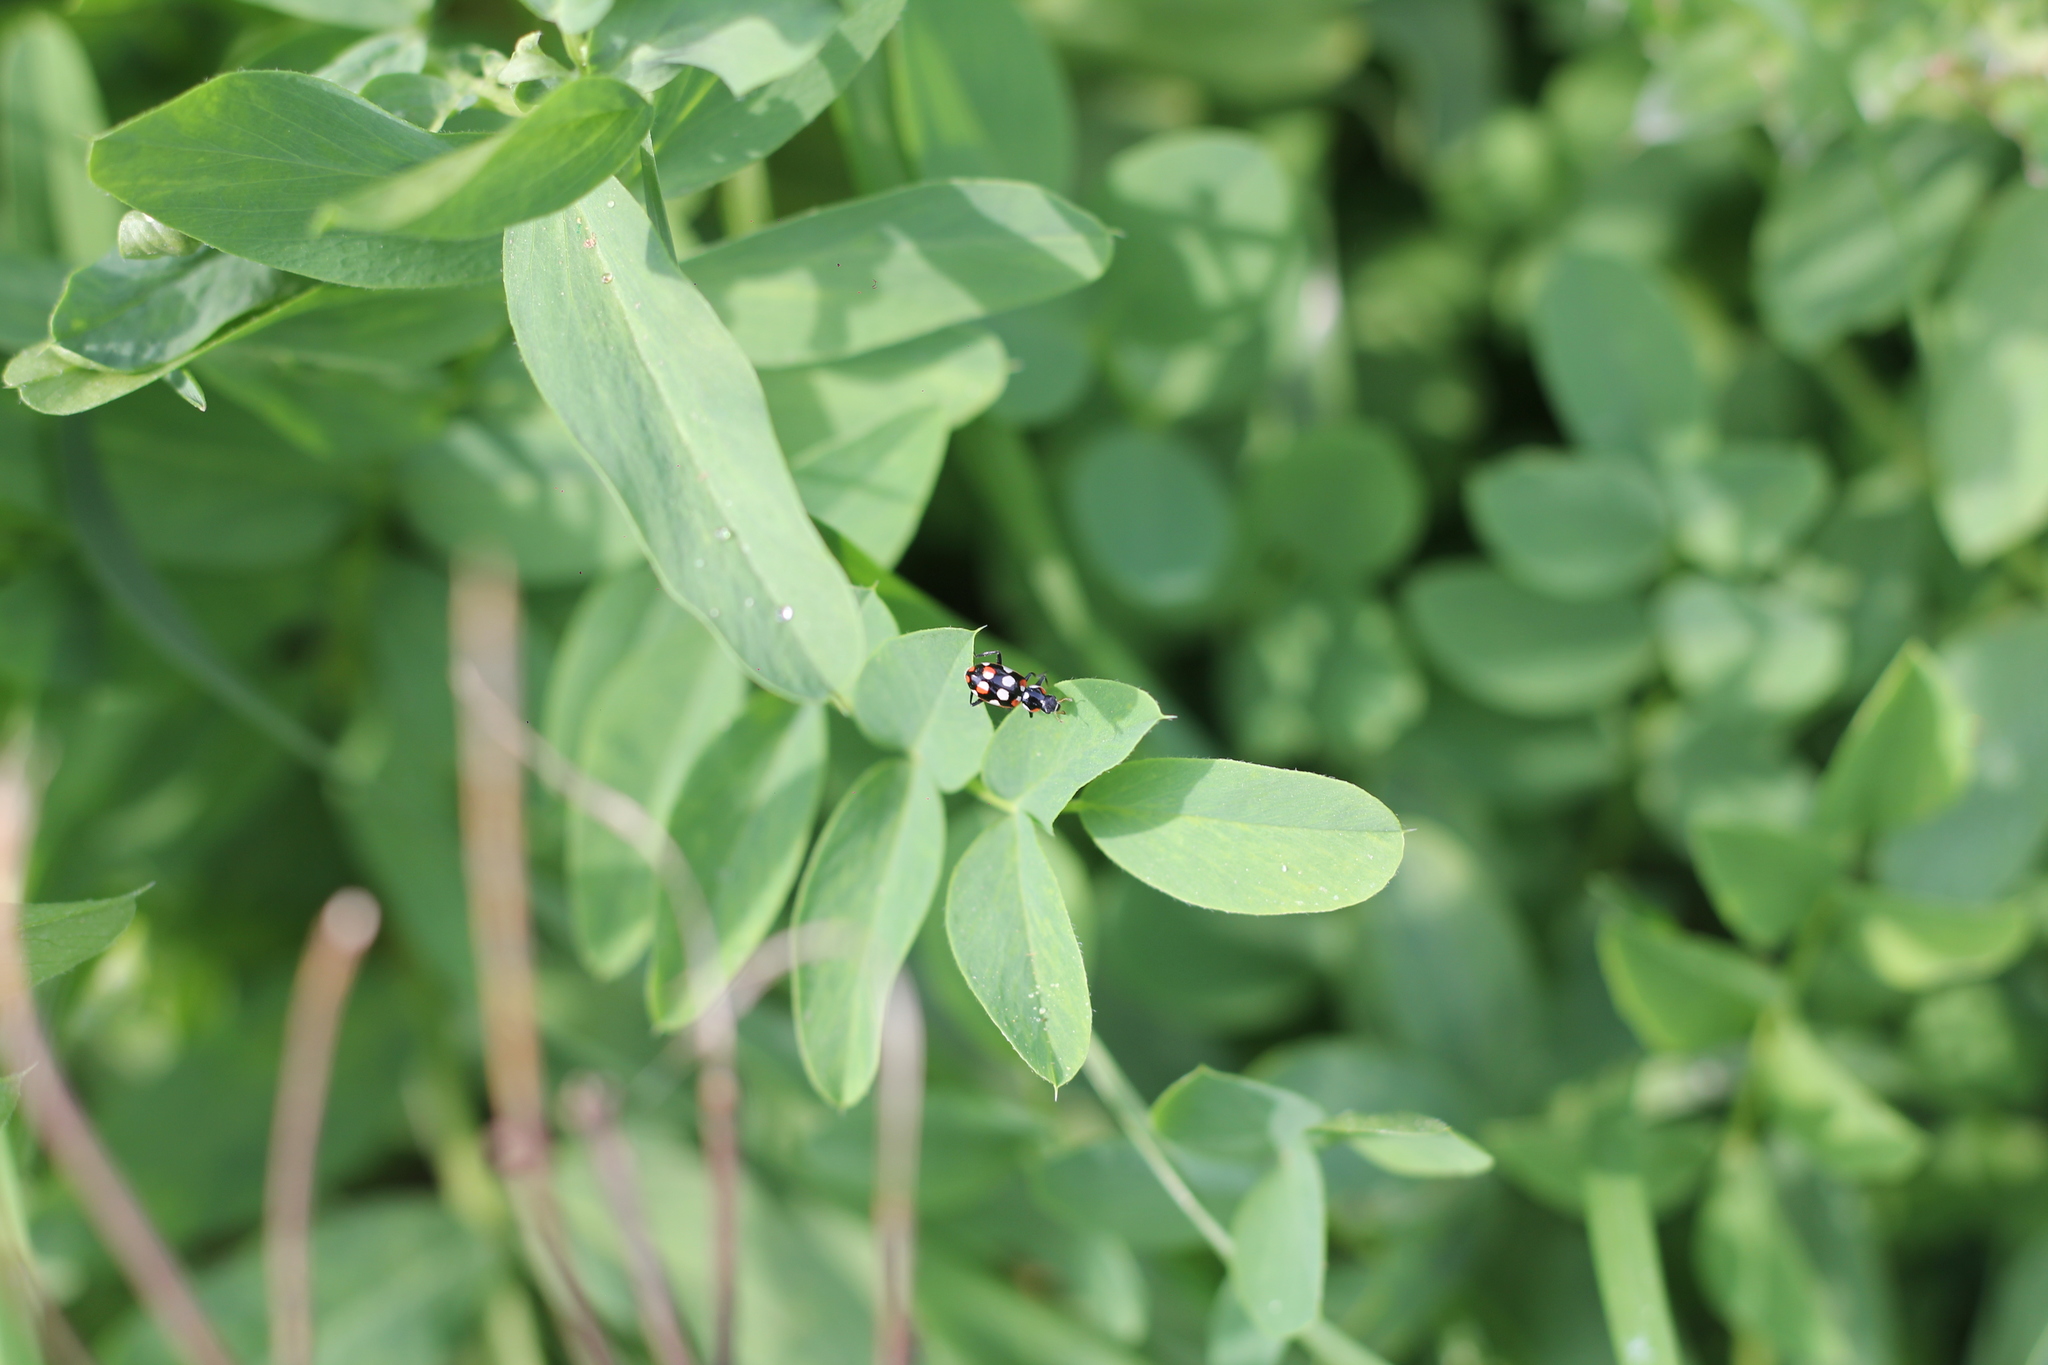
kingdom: Animalia
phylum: Arthropoda
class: Insecta
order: Coleoptera
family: Coccinellidae
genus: Eriopis
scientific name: Eriopis connexa
